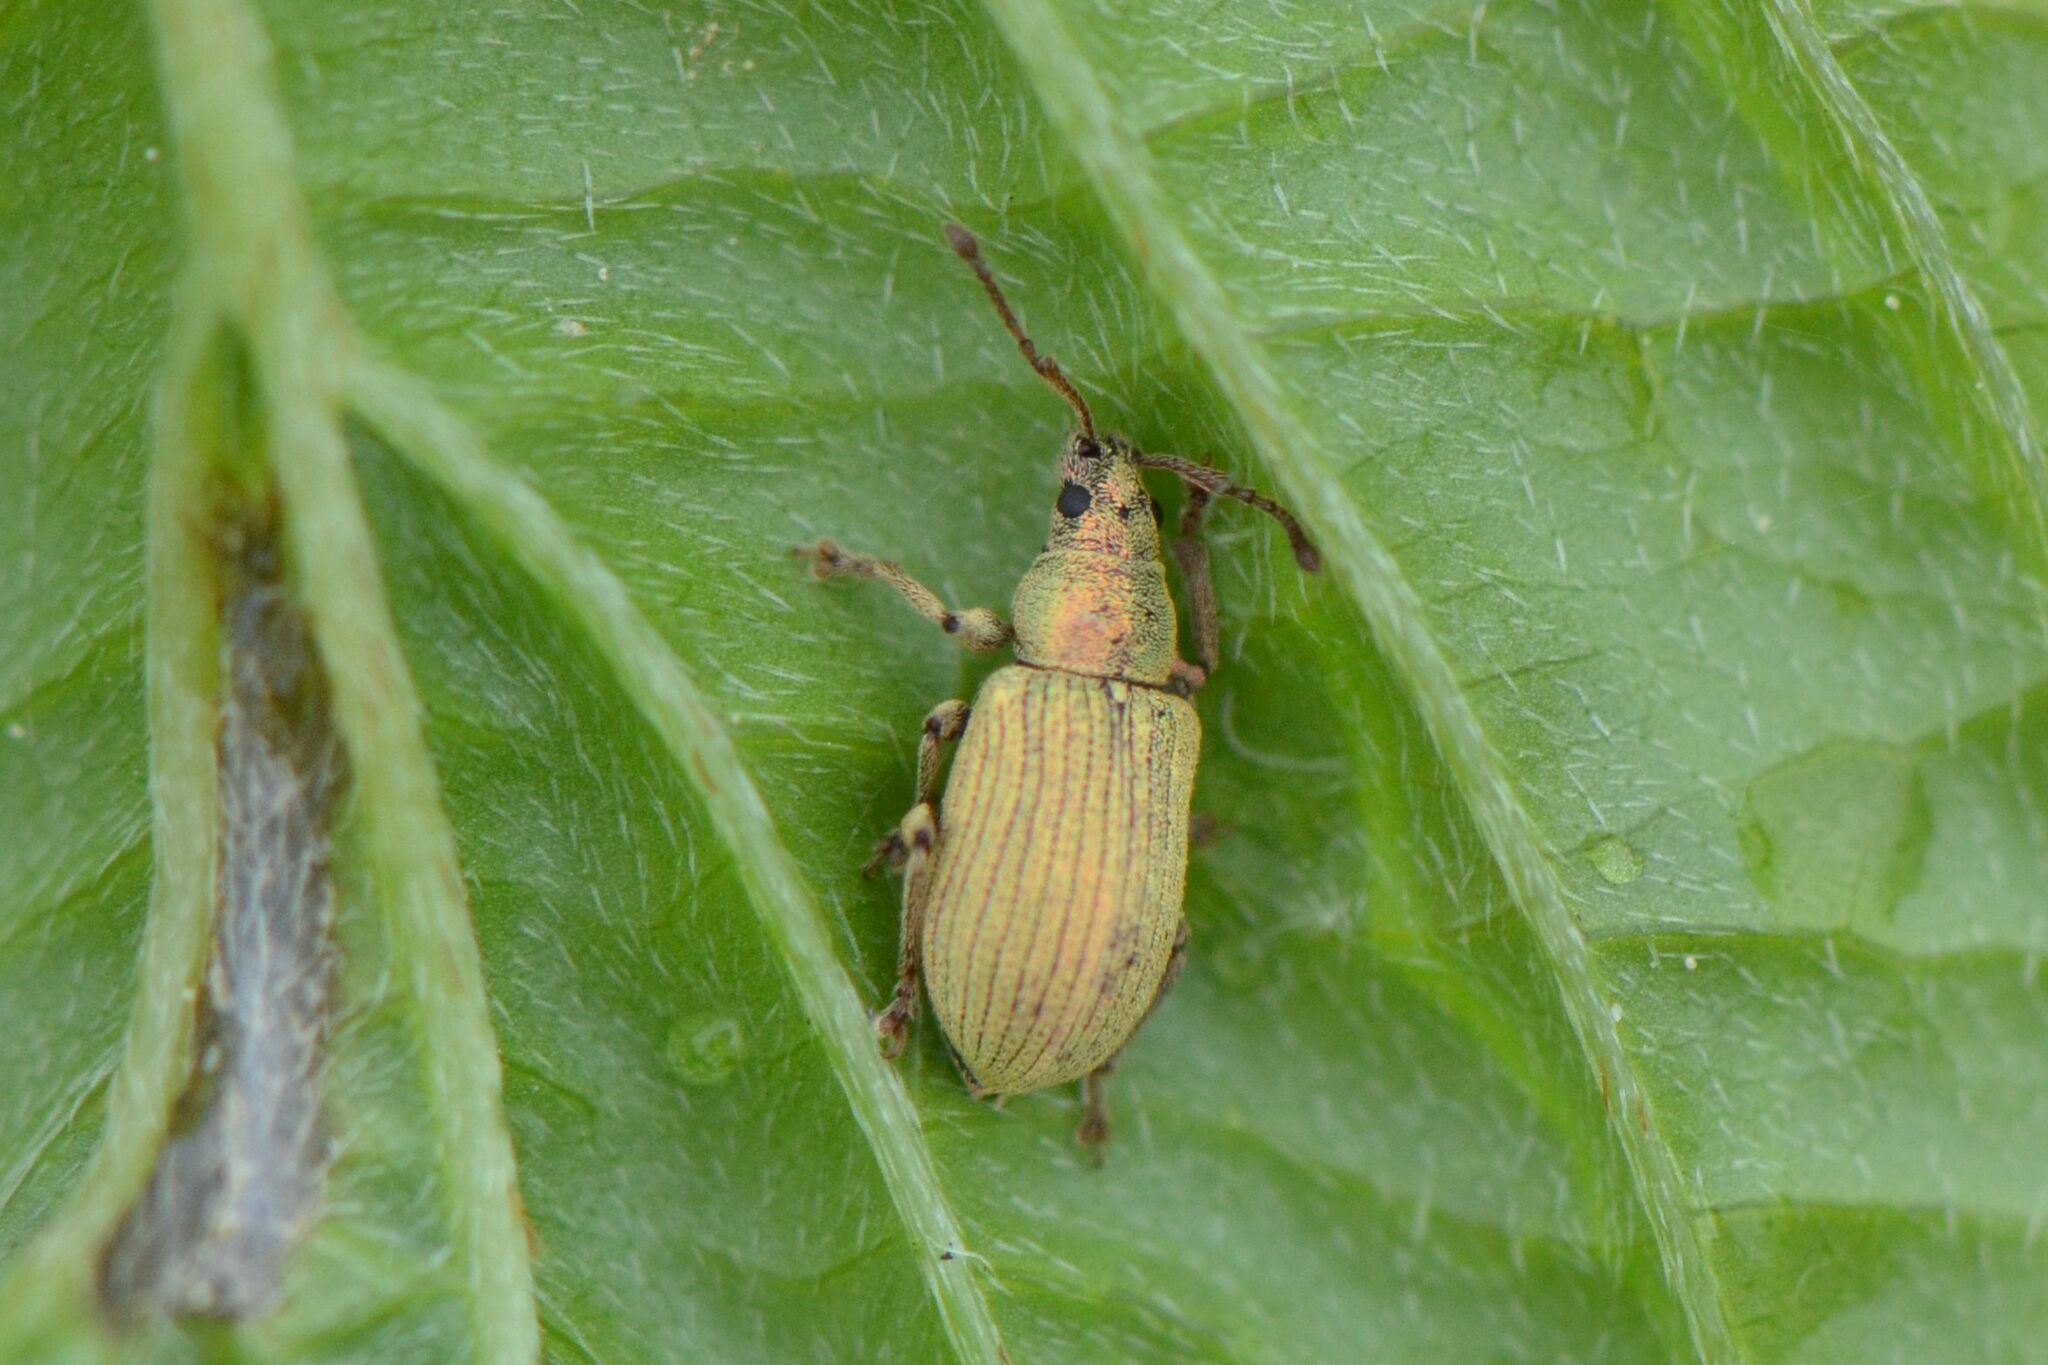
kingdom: Animalia
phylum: Arthropoda
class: Insecta
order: Coleoptera
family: Curculionidae
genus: Phyllobius
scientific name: Phyllobius roboretanus
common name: Small green nettle weevil
